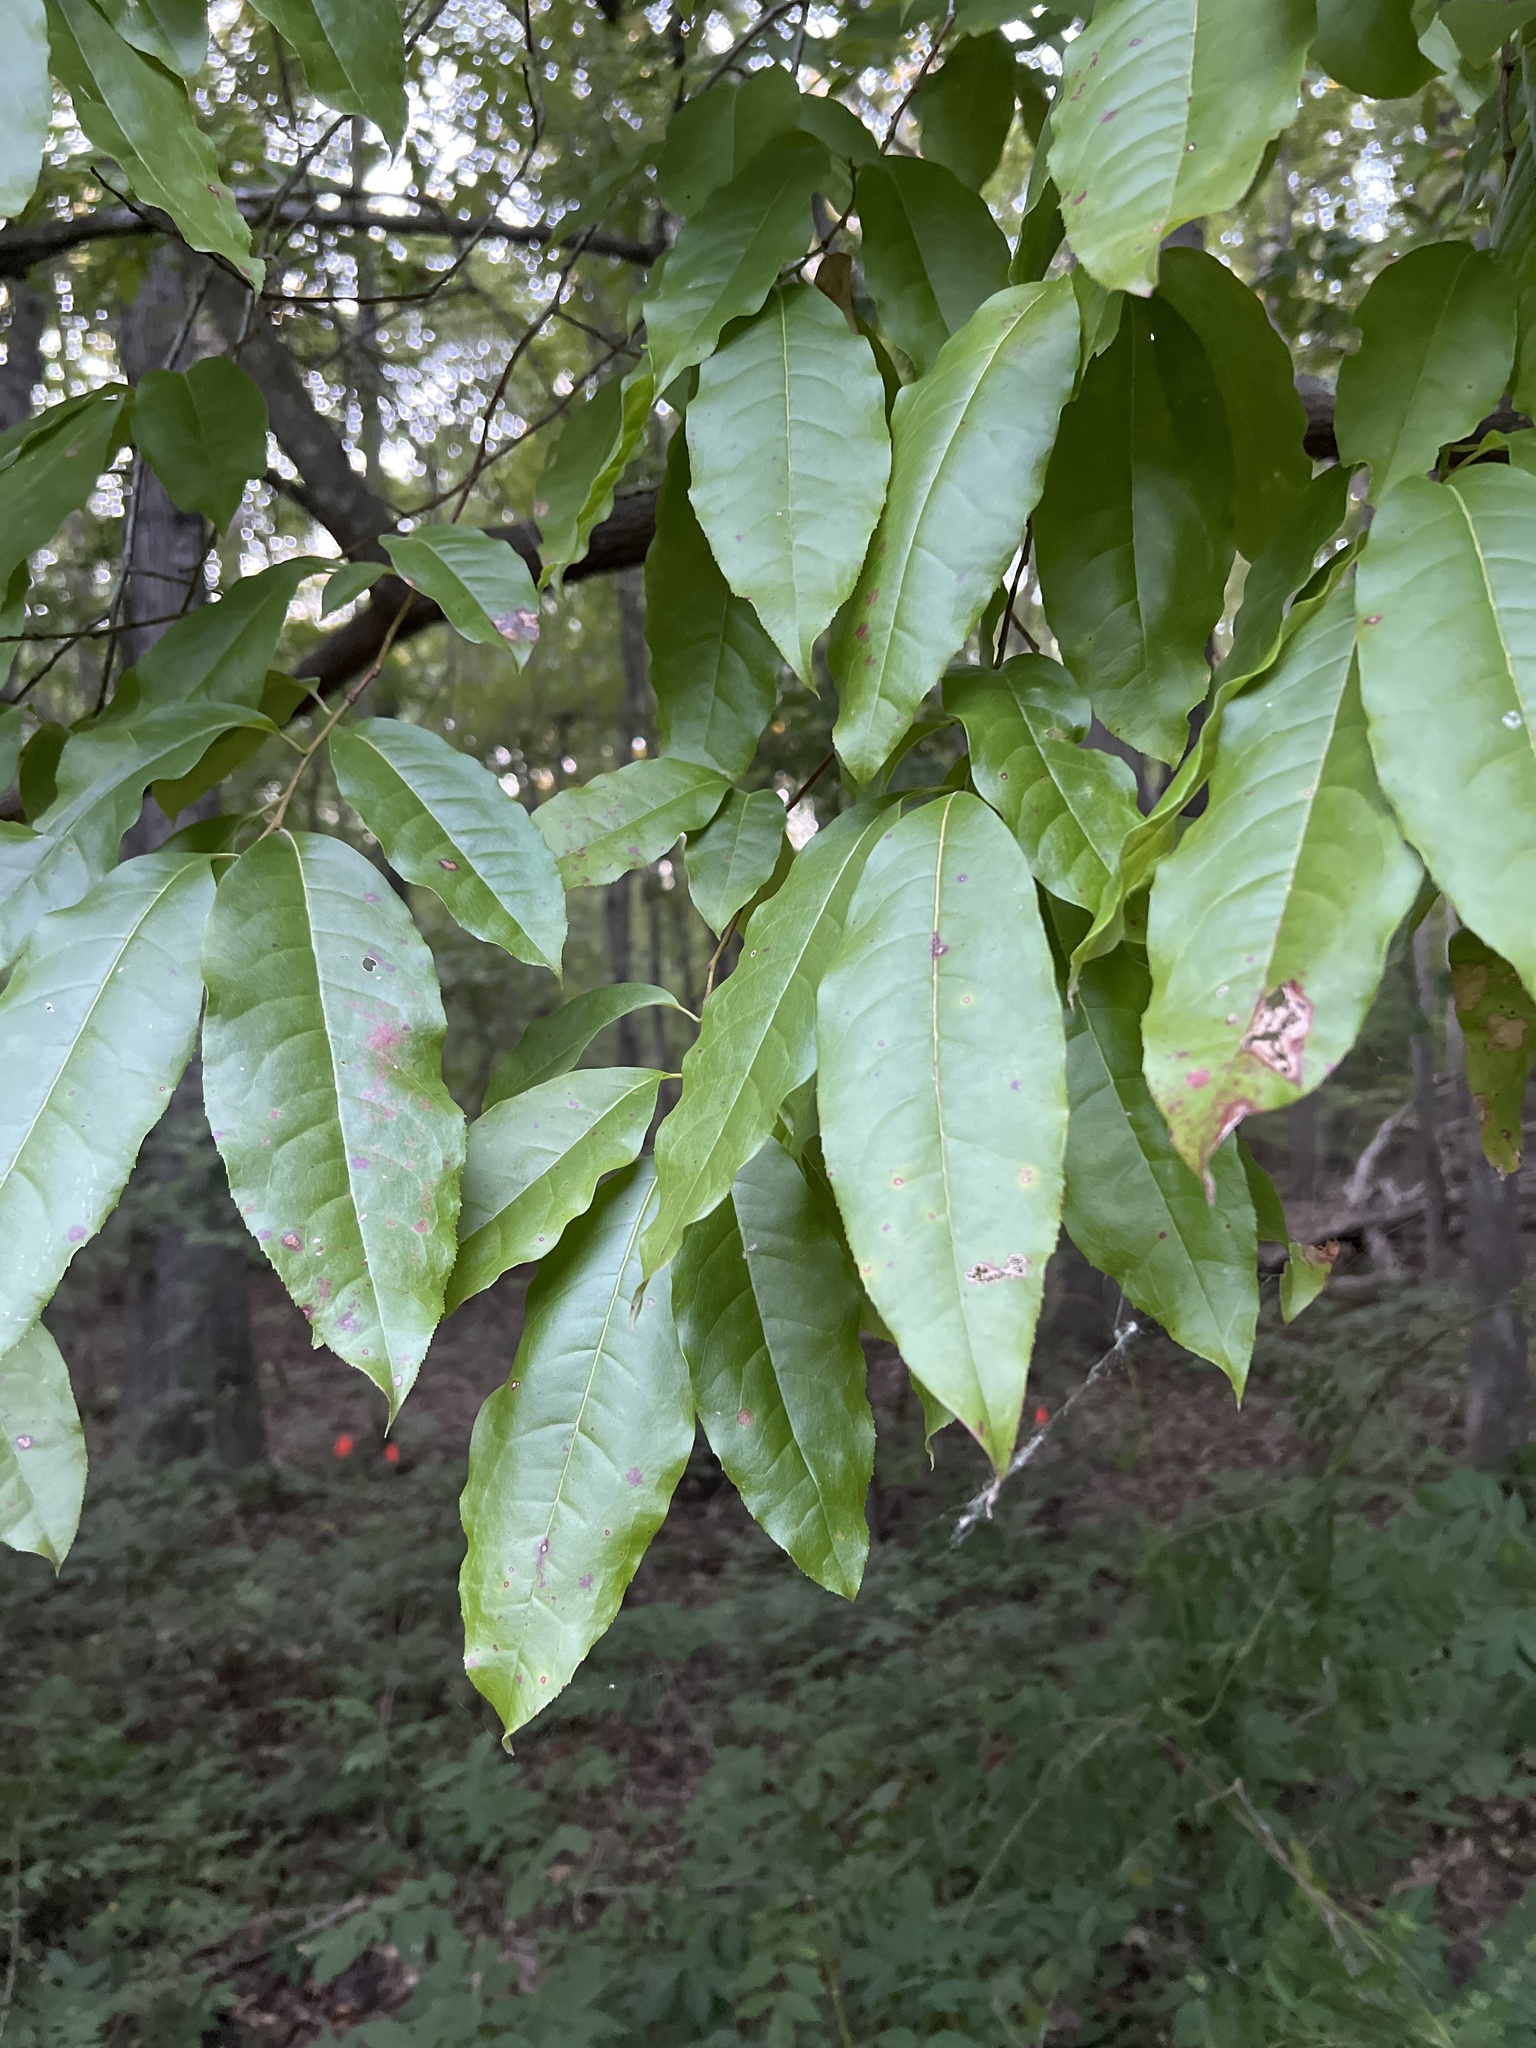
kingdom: Plantae
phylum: Tracheophyta
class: Magnoliopsida
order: Ericales
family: Ericaceae
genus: Oxydendrum
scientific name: Oxydendrum arboreum
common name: Sourwood
